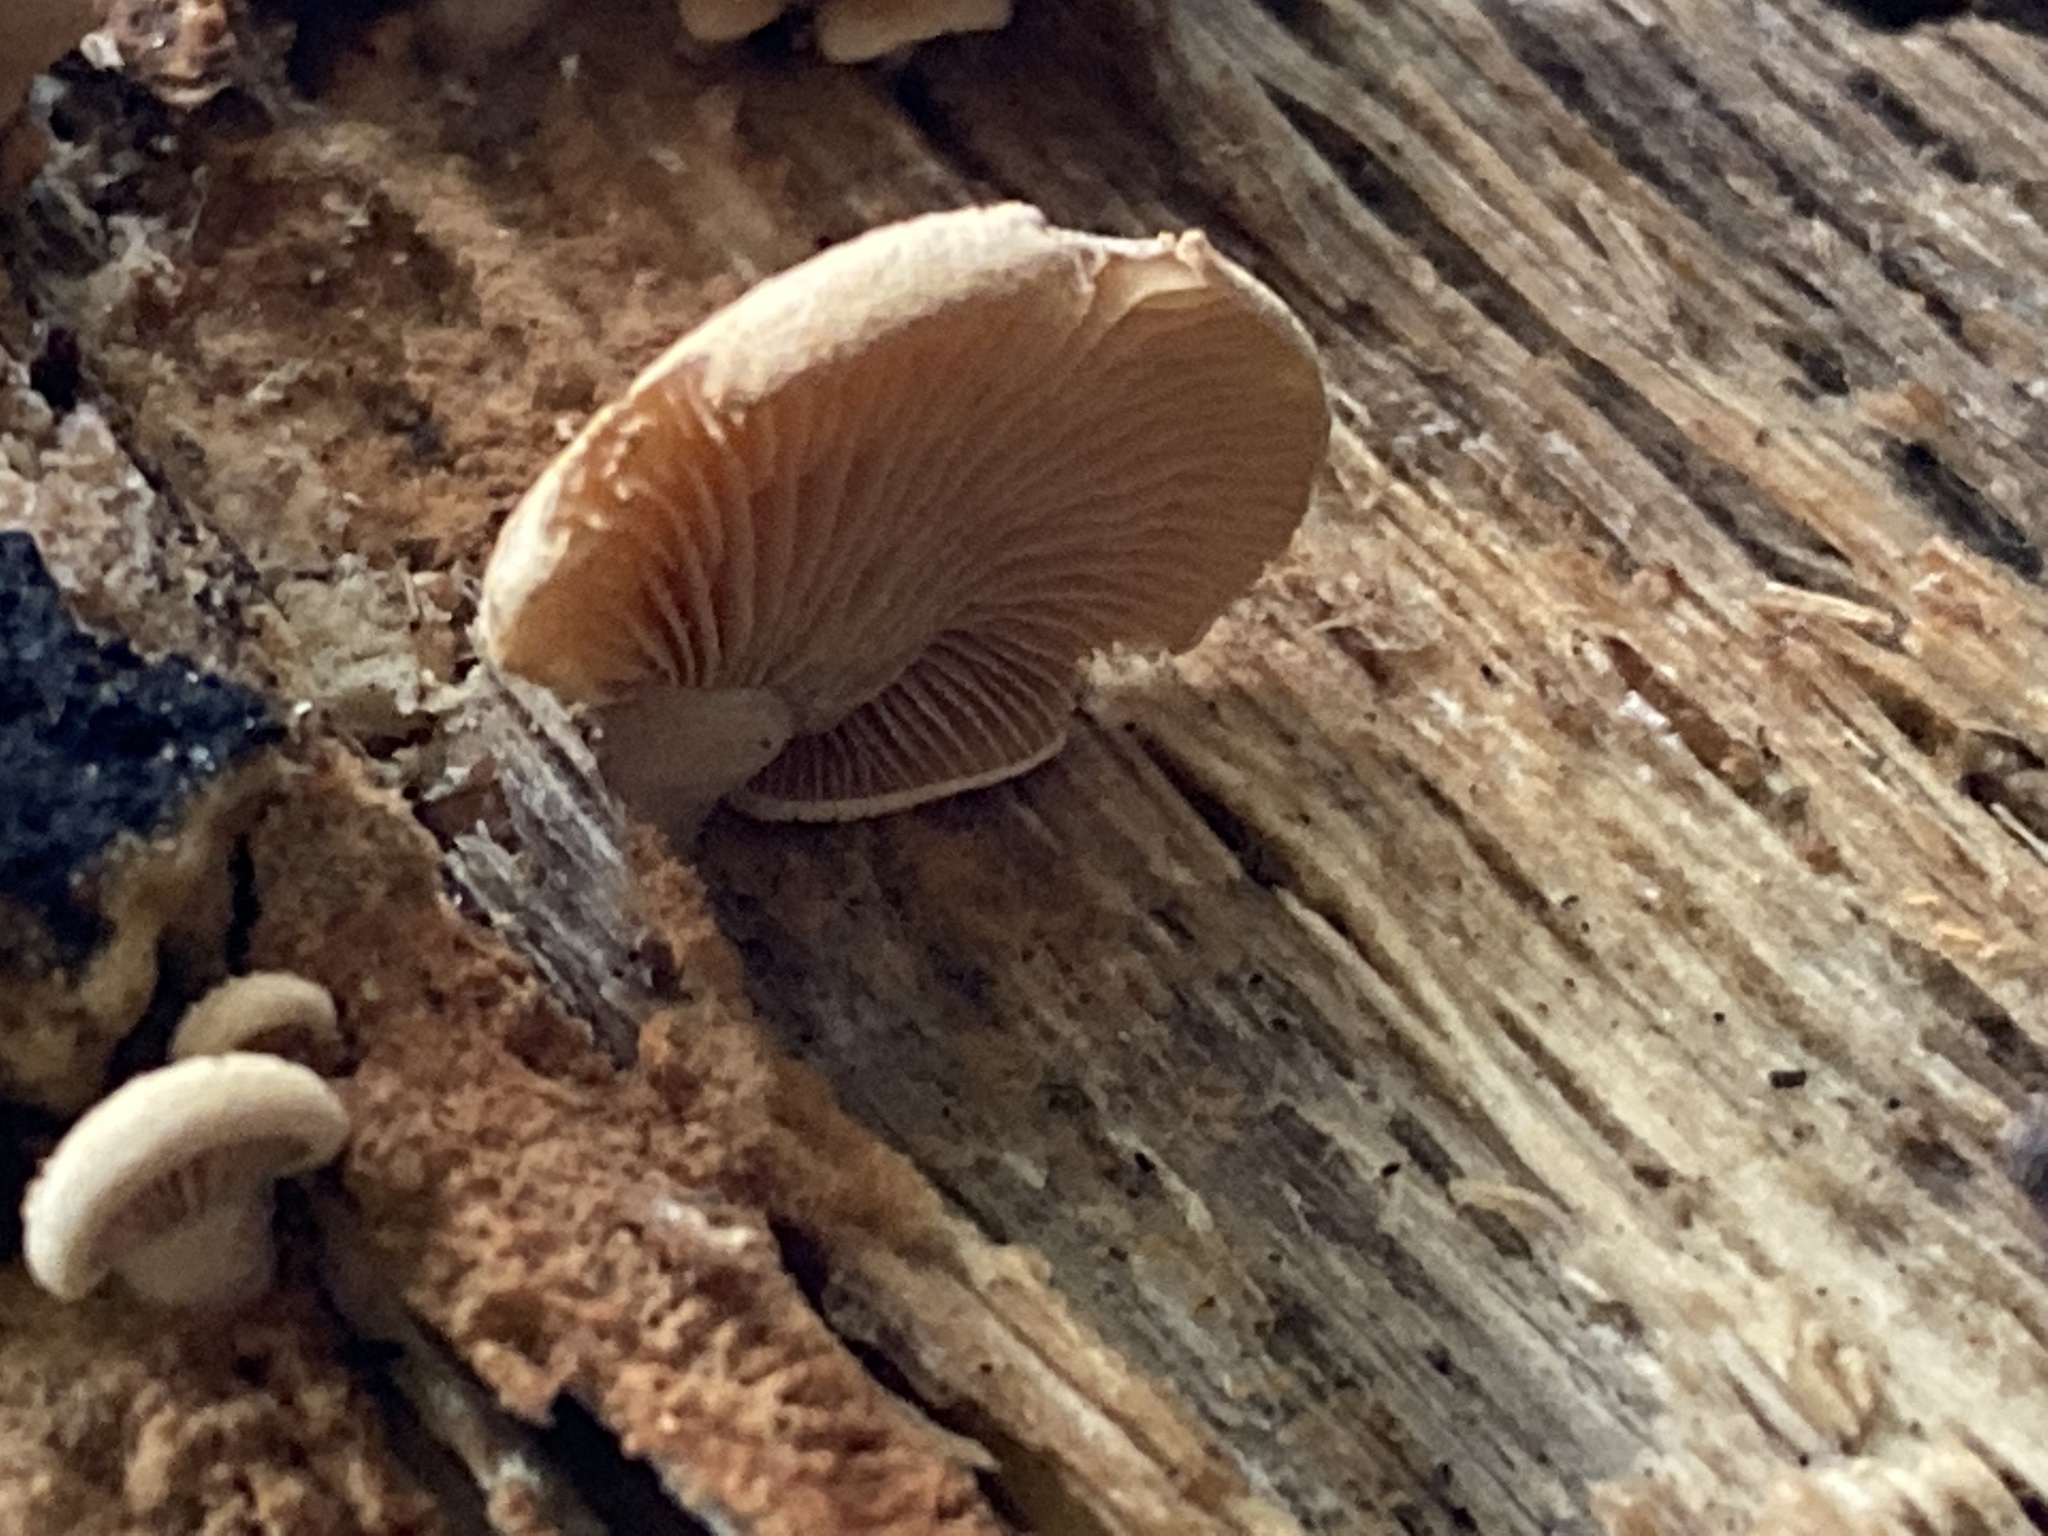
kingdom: Fungi
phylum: Basidiomycota
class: Agaricomycetes
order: Agaricales
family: Mycenaceae
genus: Panellus
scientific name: Panellus stipticus
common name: Bitter oysterling
